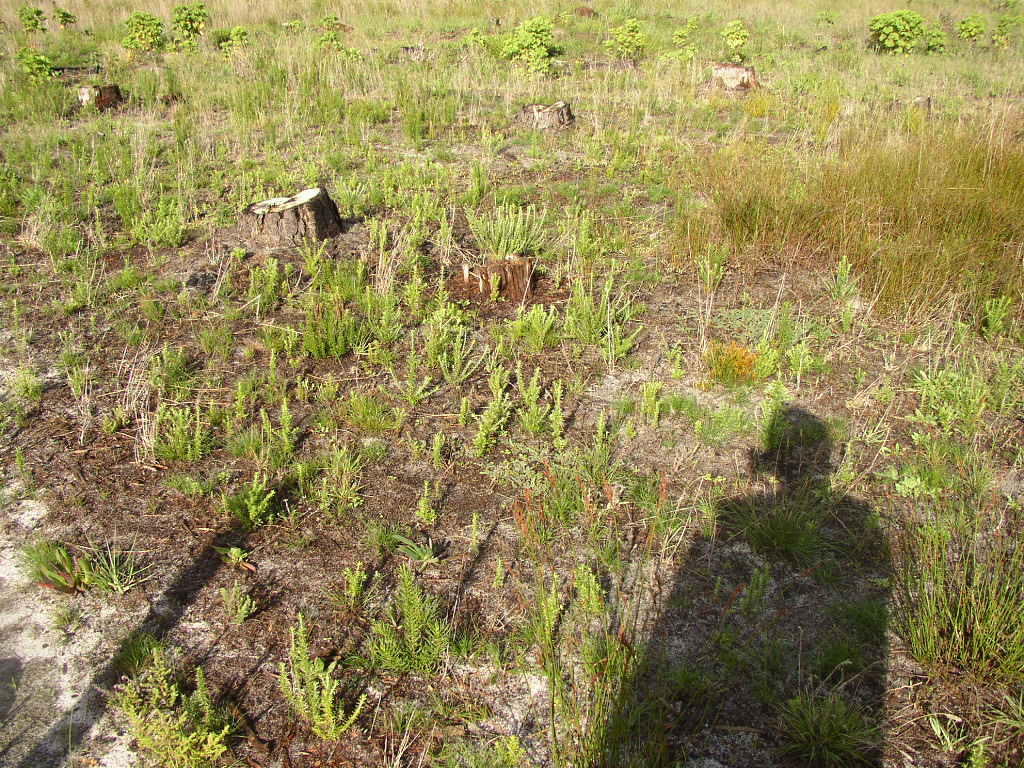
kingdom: Plantae
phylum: Tracheophyta
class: Liliopsida
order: Poales
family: Restionaceae
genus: Willdenowia
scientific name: Willdenowia sulcata
